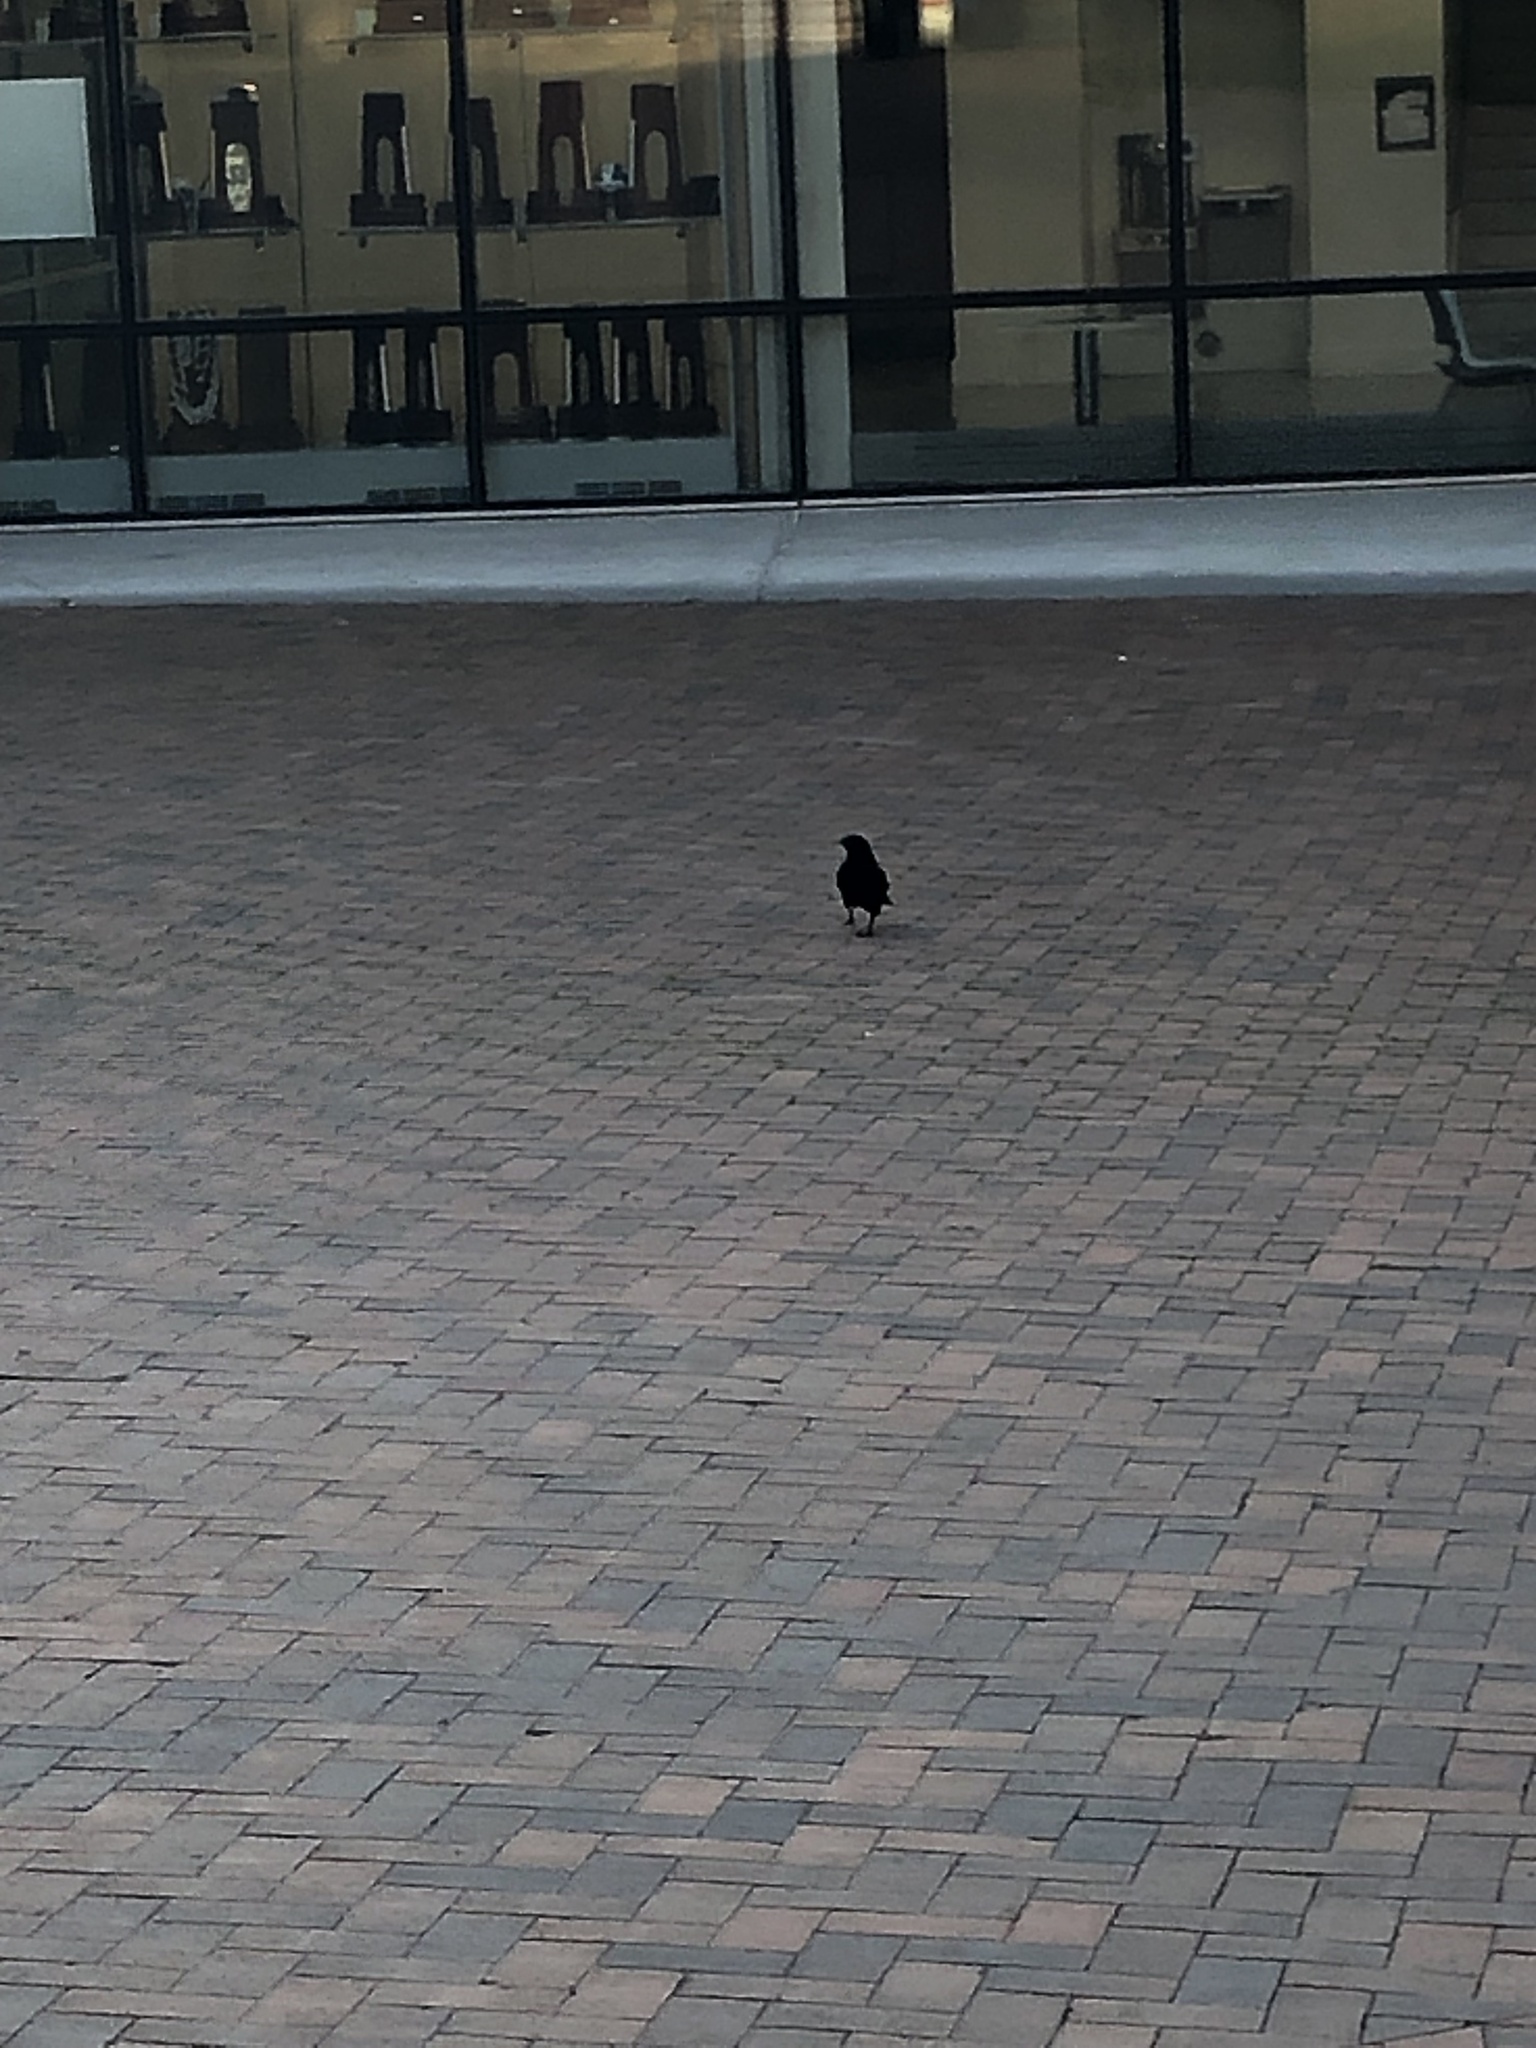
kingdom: Animalia
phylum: Chordata
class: Aves
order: Passeriformes
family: Corvidae
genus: Corvus
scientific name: Corvus brachyrhynchos
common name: American crow
